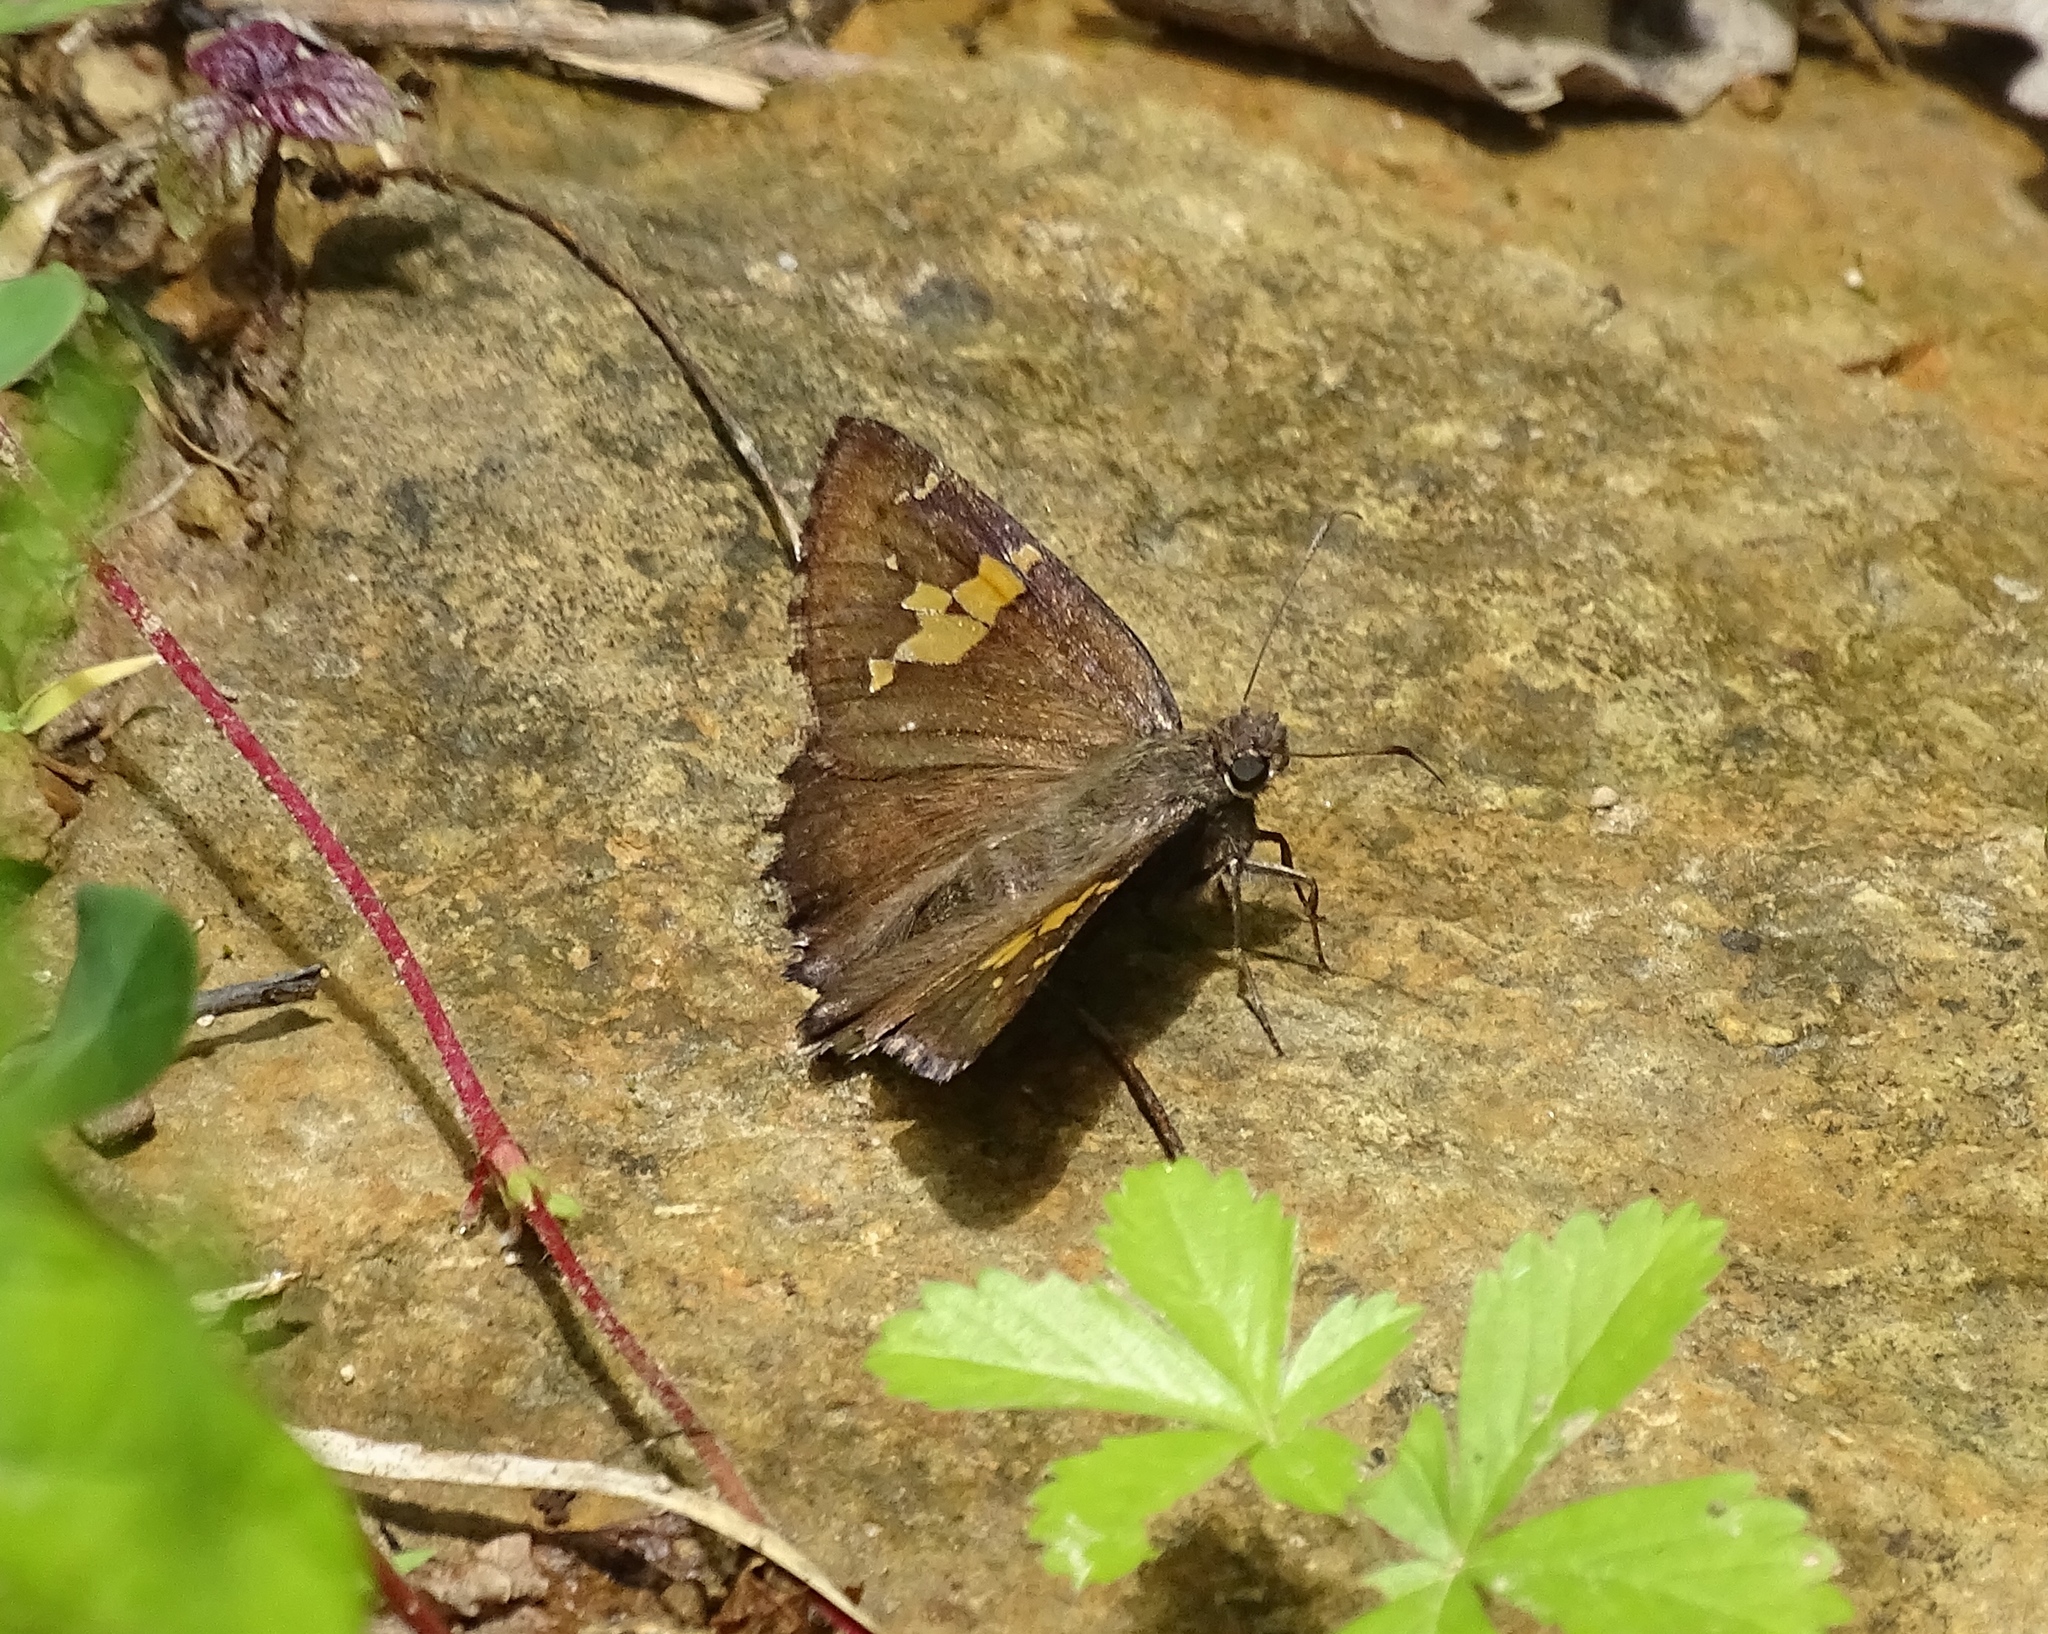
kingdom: Animalia
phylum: Arthropoda
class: Insecta
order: Lepidoptera
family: Hesperiidae
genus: Thorybes
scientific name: Thorybes lyciades
